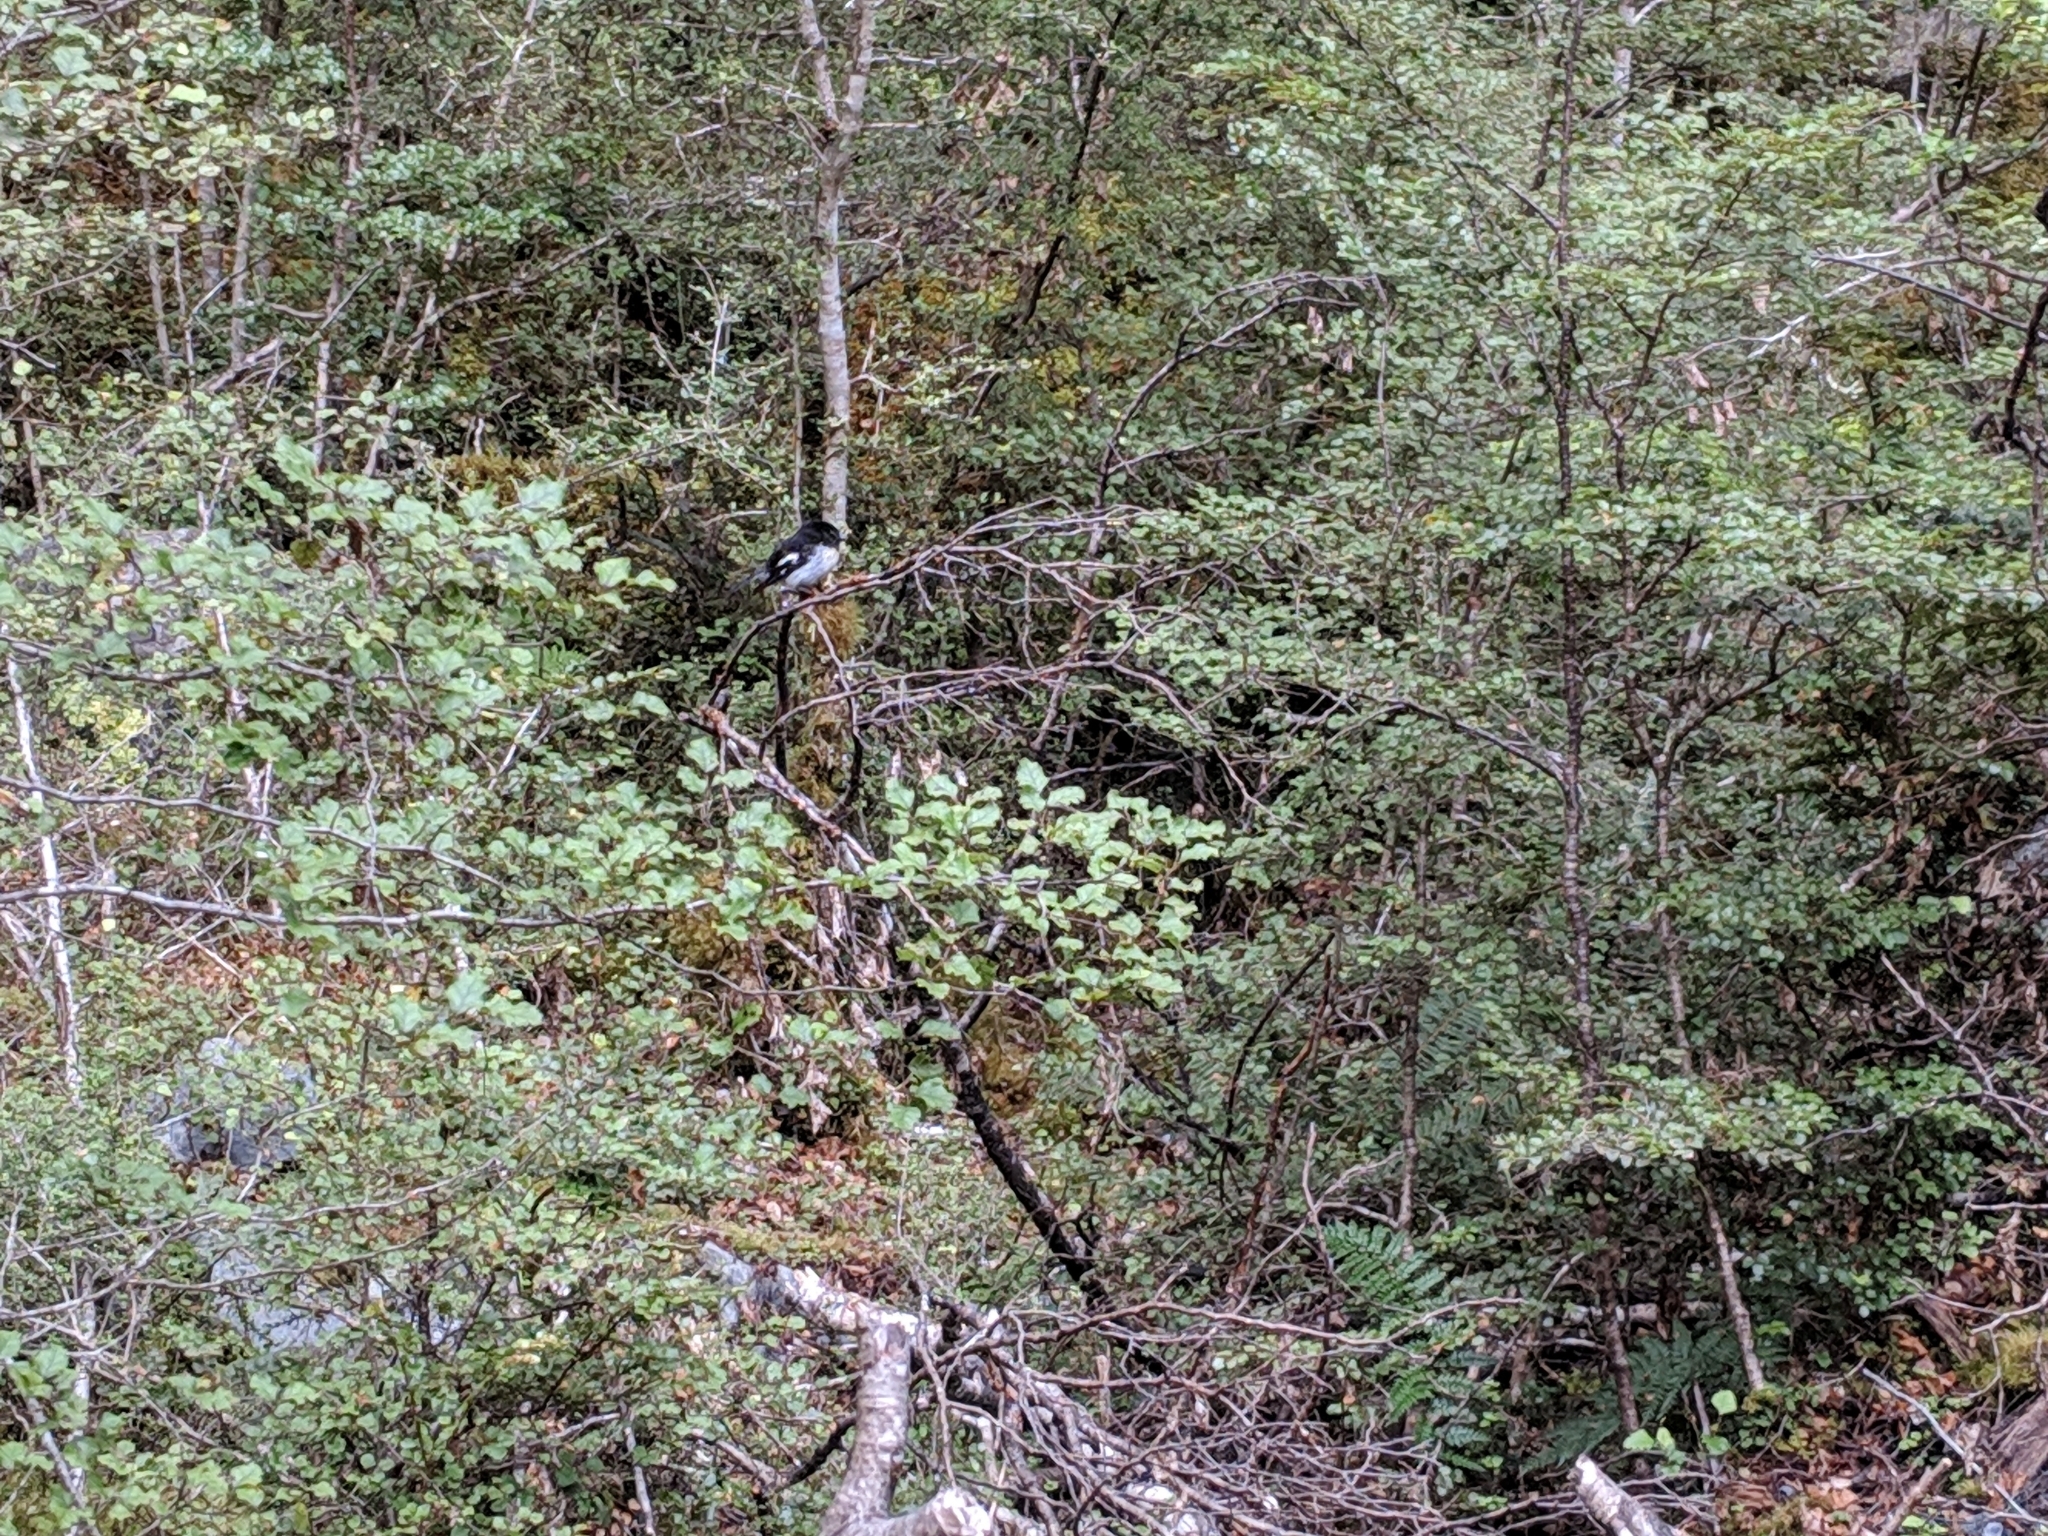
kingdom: Animalia
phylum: Chordata
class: Aves
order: Passeriformes
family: Petroicidae
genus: Petroica
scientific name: Petroica macrocephala
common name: Tomtit
